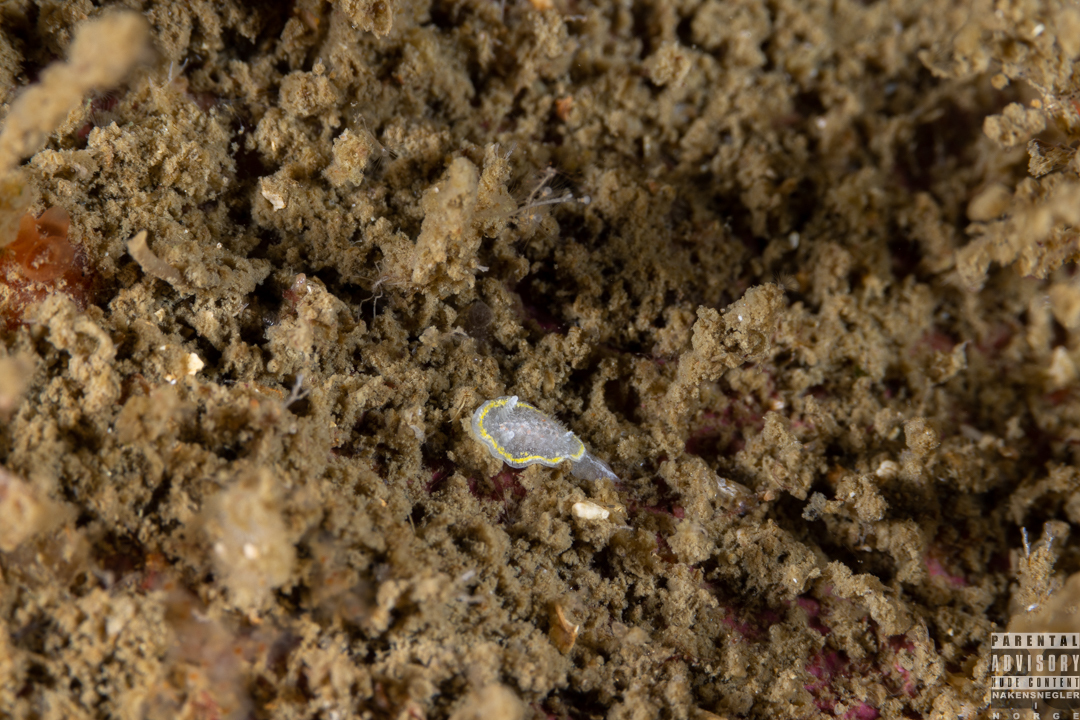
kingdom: Animalia
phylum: Mollusca
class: Gastropoda
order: Nudibranchia
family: Calycidorididae
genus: Diaphorodoris
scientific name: Diaphorodoris luteocincta
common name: Fried egg nudibranch
